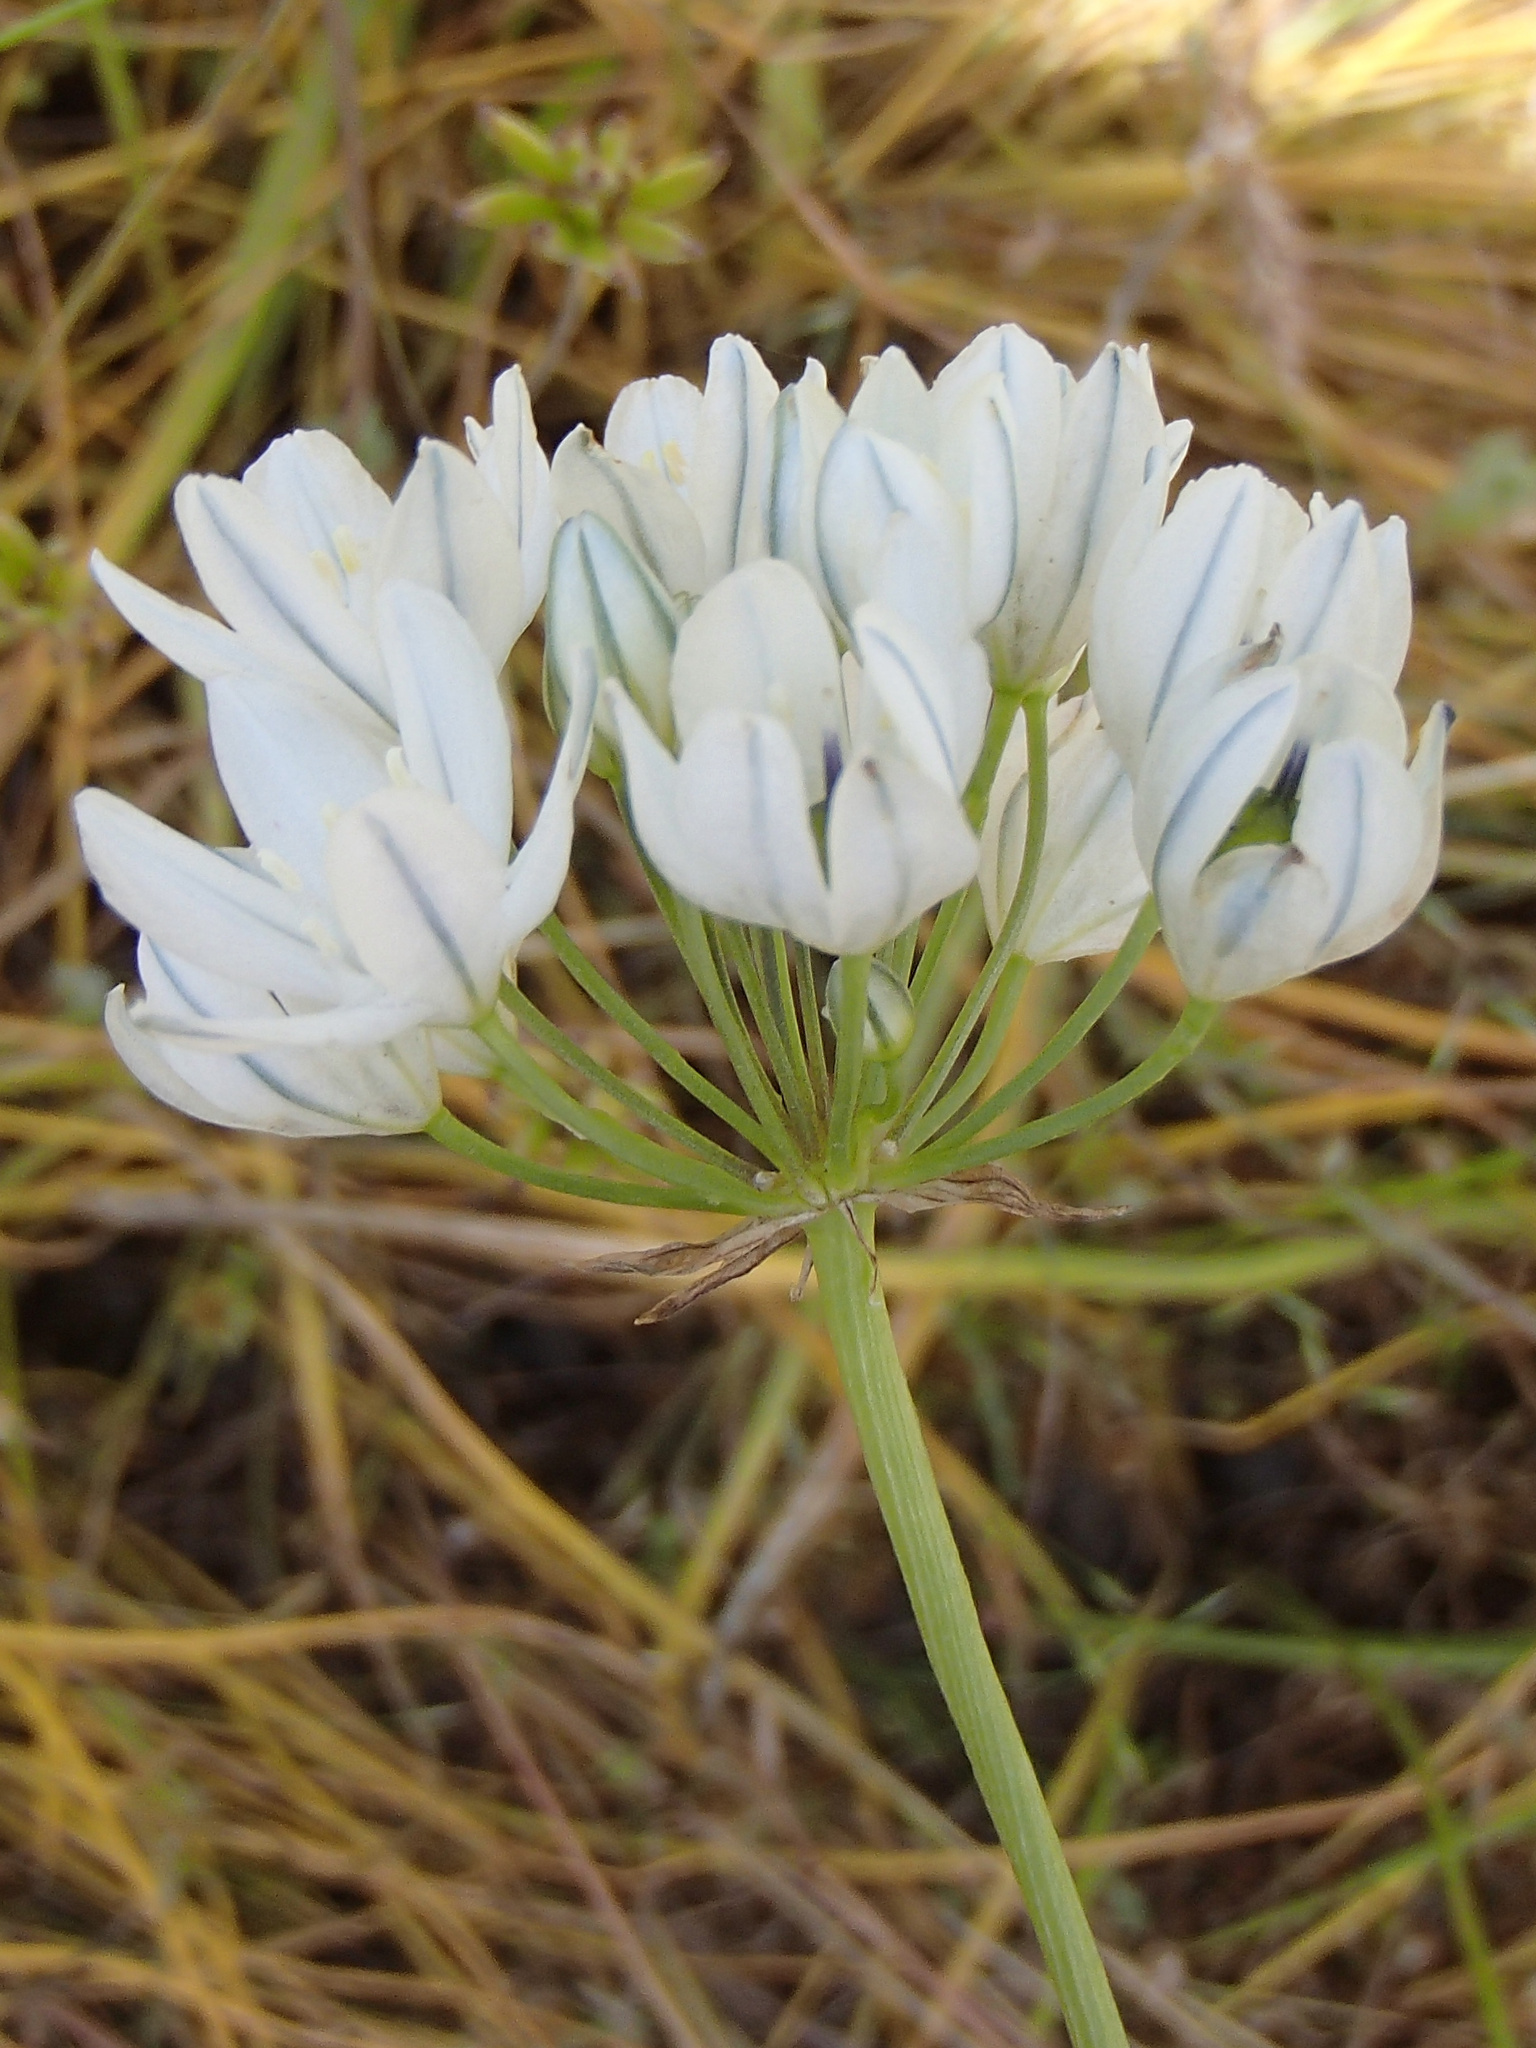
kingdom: Plantae
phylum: Tracheophyta
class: Liliopsida
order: Asparagales
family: Asparagaceae
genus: Triteleia
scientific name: Triteleia hyacinthina
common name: White brodiaea
